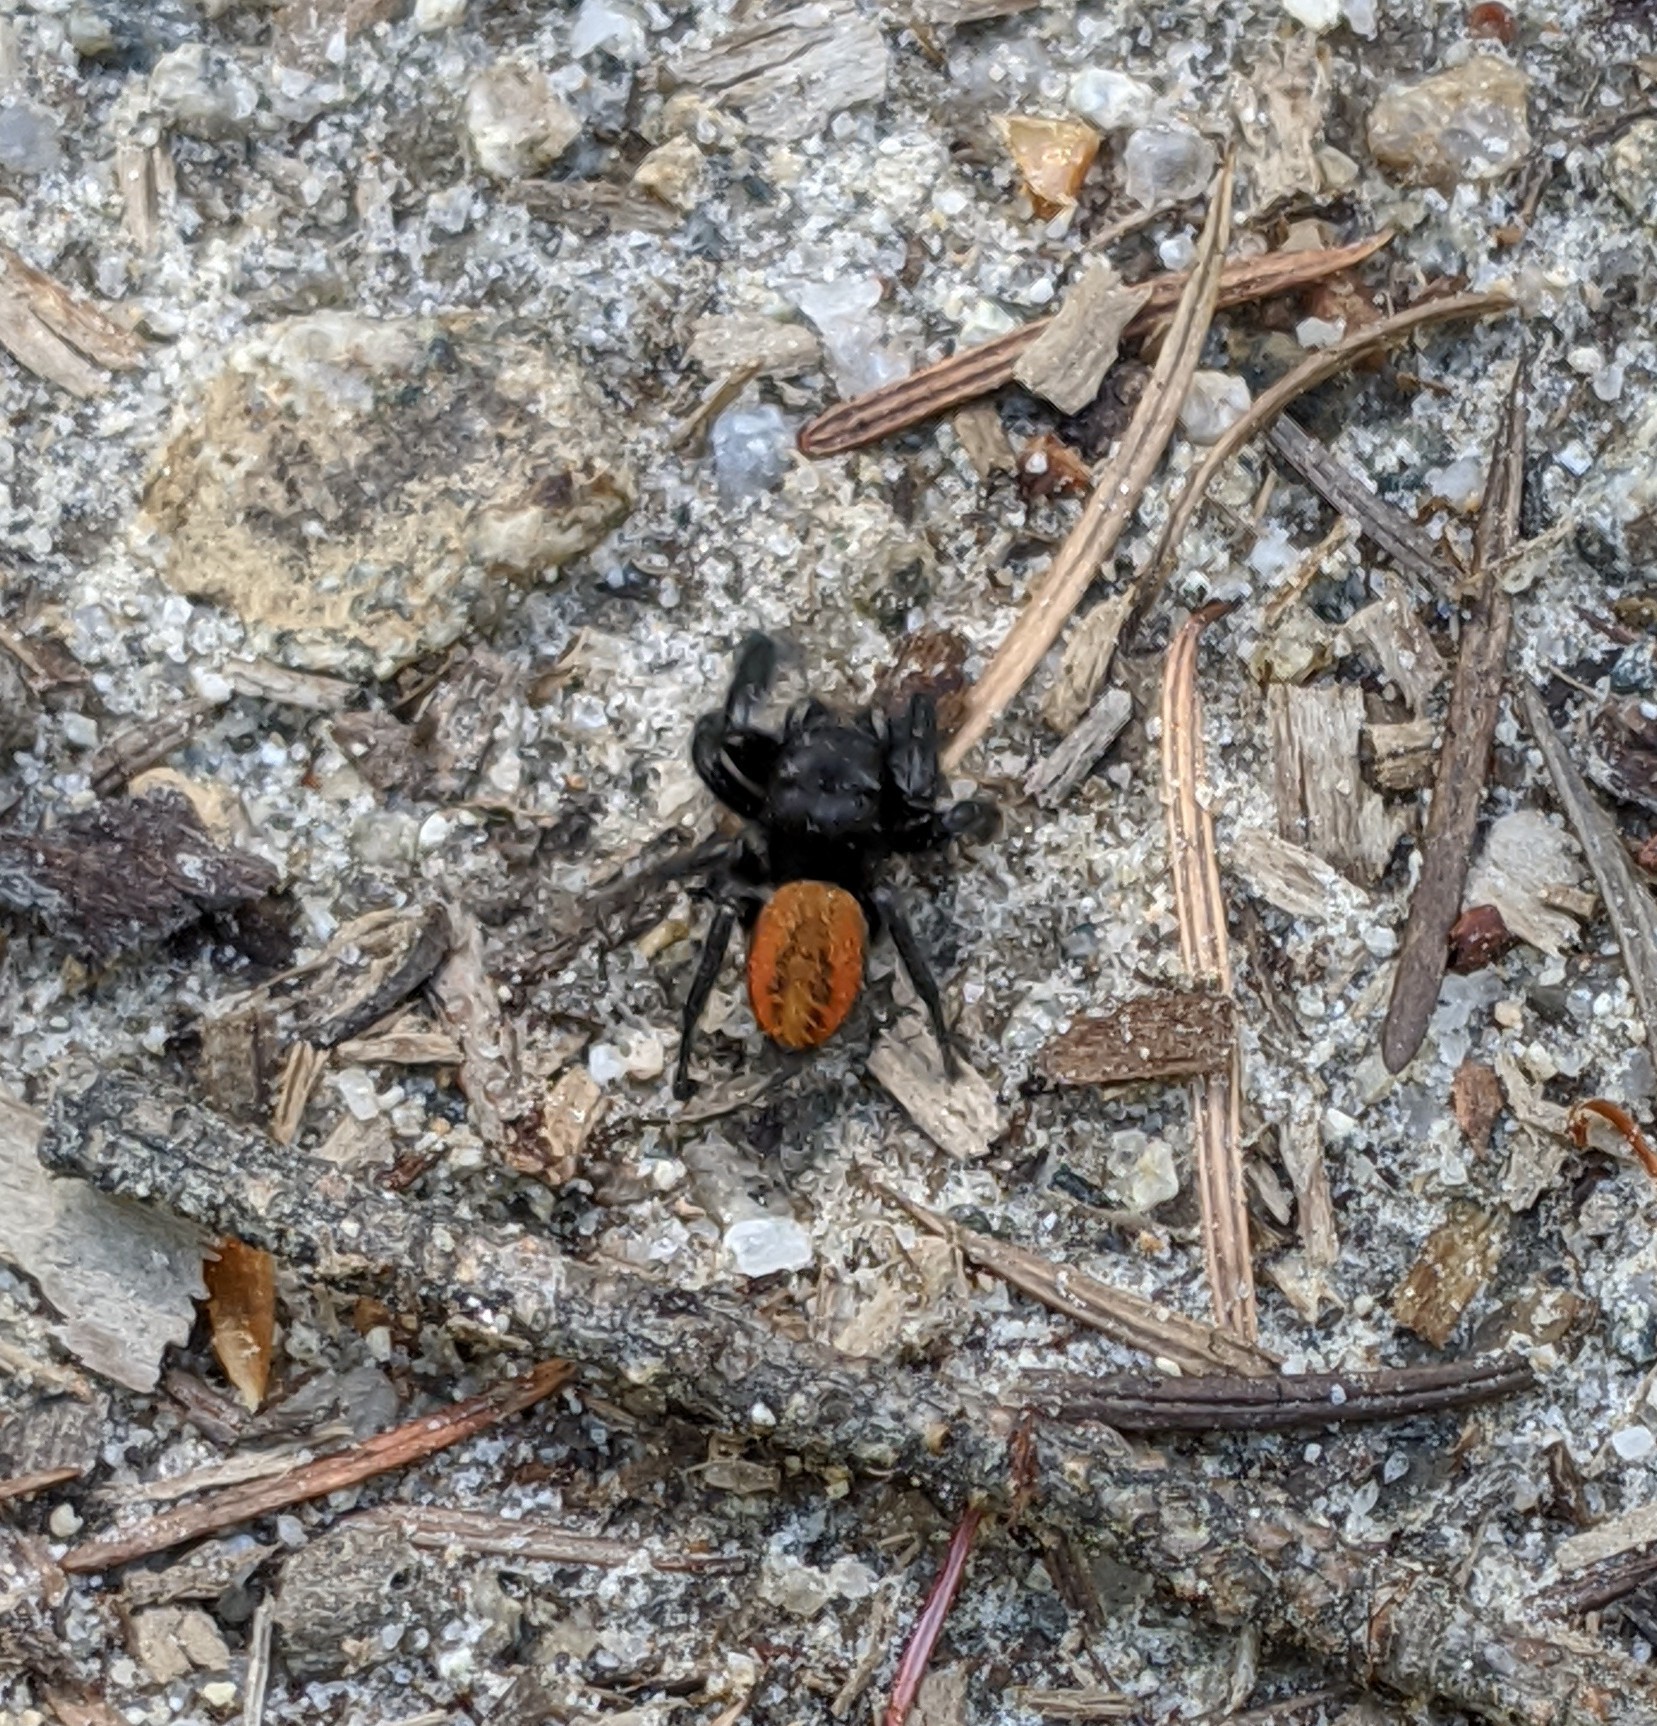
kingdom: Animalia
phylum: Arthropoda
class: Arachnida
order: Araneae
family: Salticidae
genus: Phidippus
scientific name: Phidippus johnsoni
